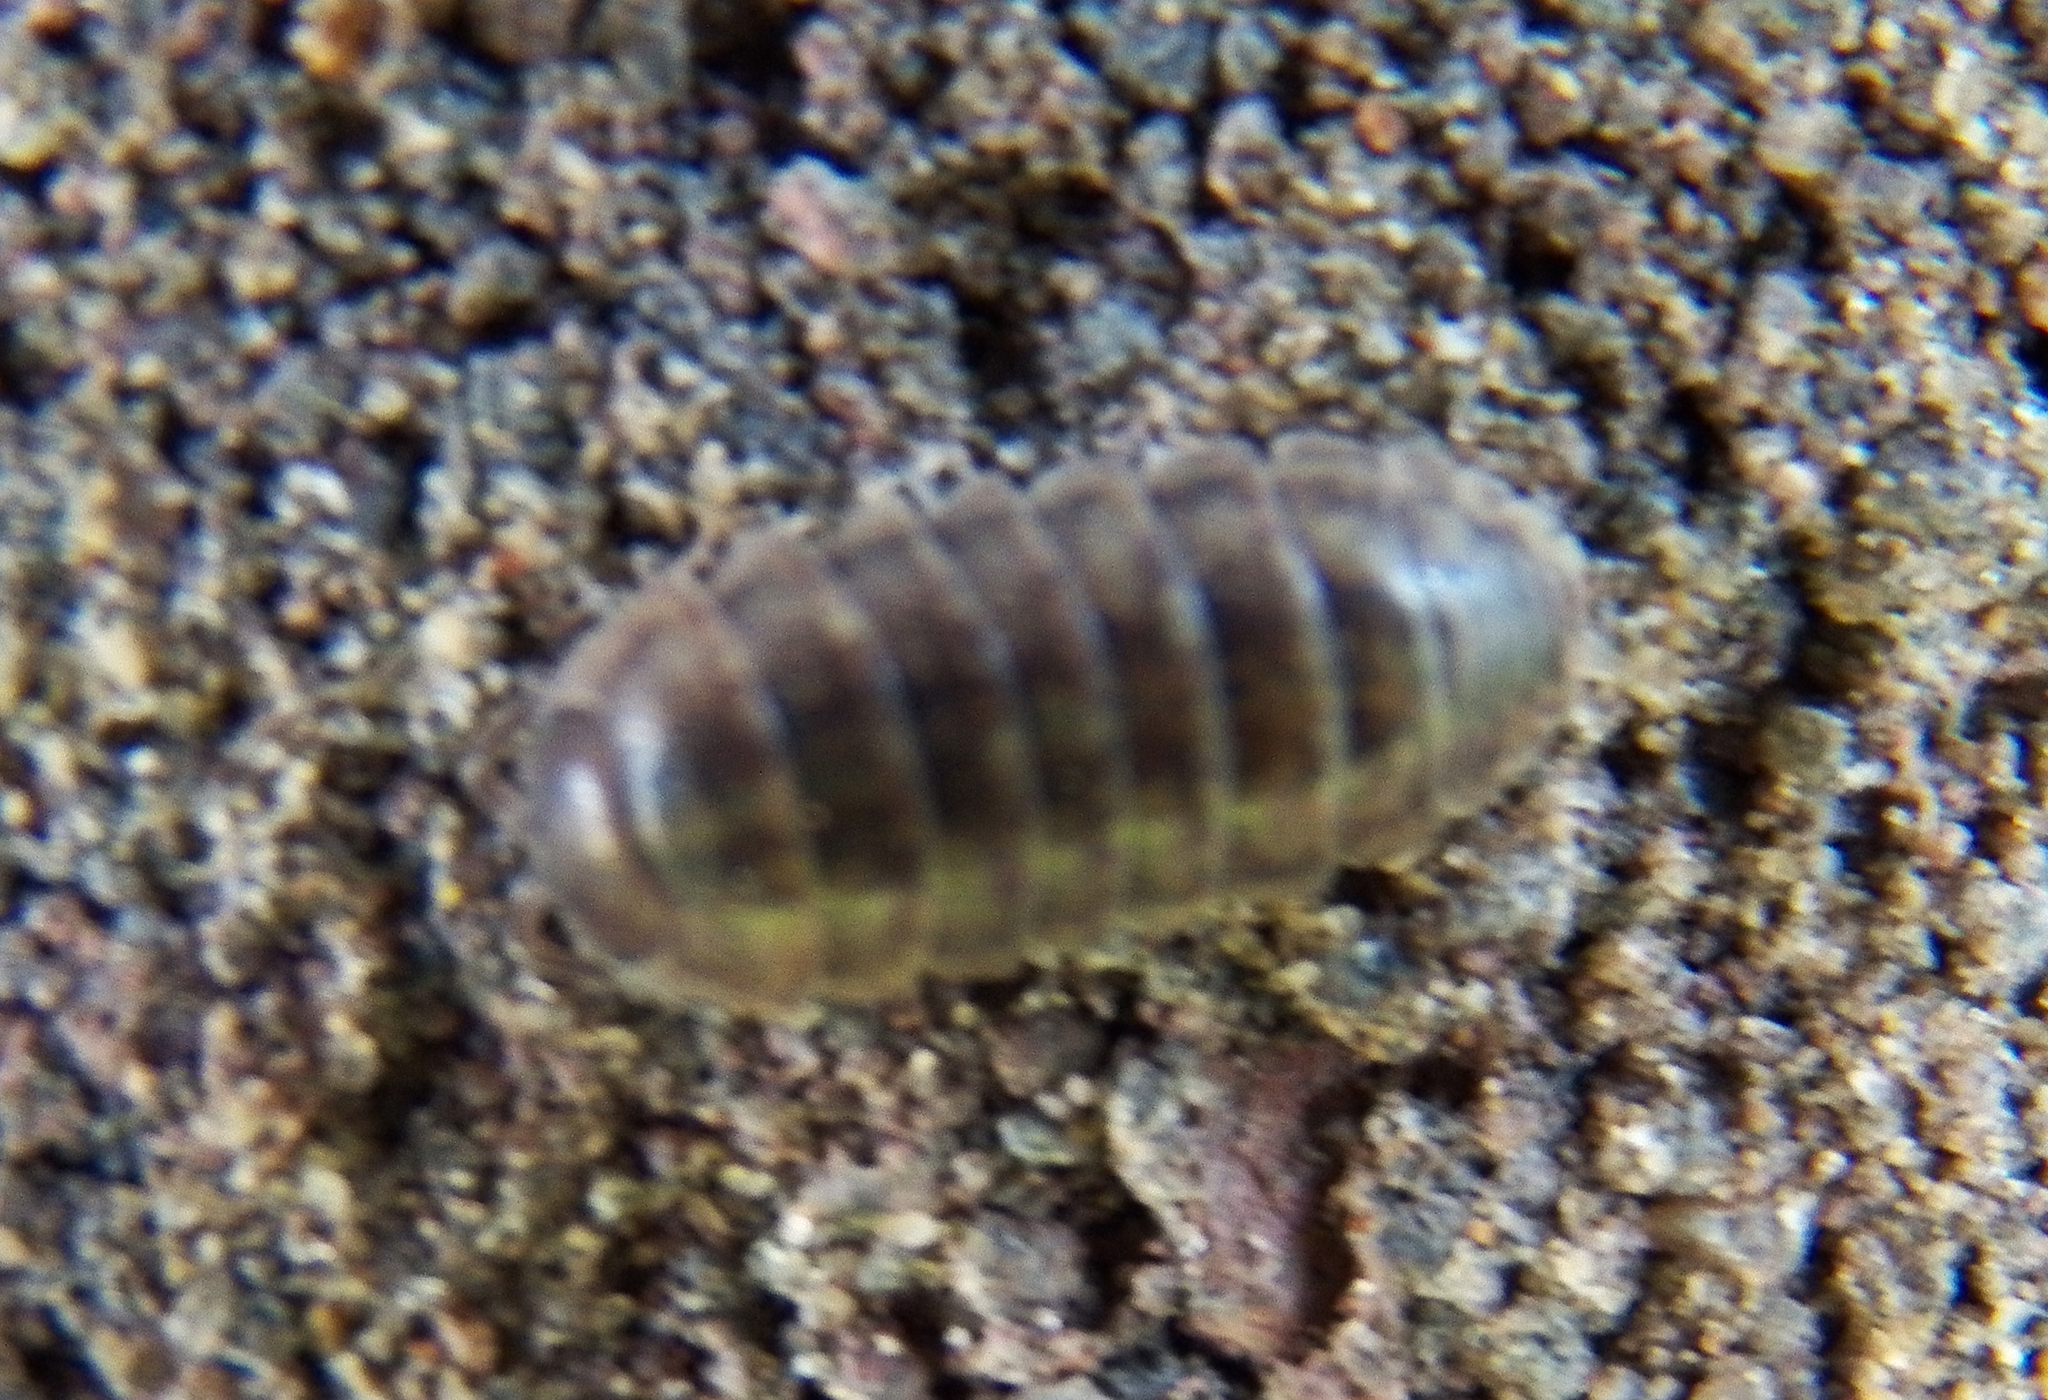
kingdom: Animalia
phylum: Arthropoda
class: Malacostraca
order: Isopoda
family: Armadillidiidae
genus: Armadillidium
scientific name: Armadillidium vulgare
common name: Common pill woodlouse
